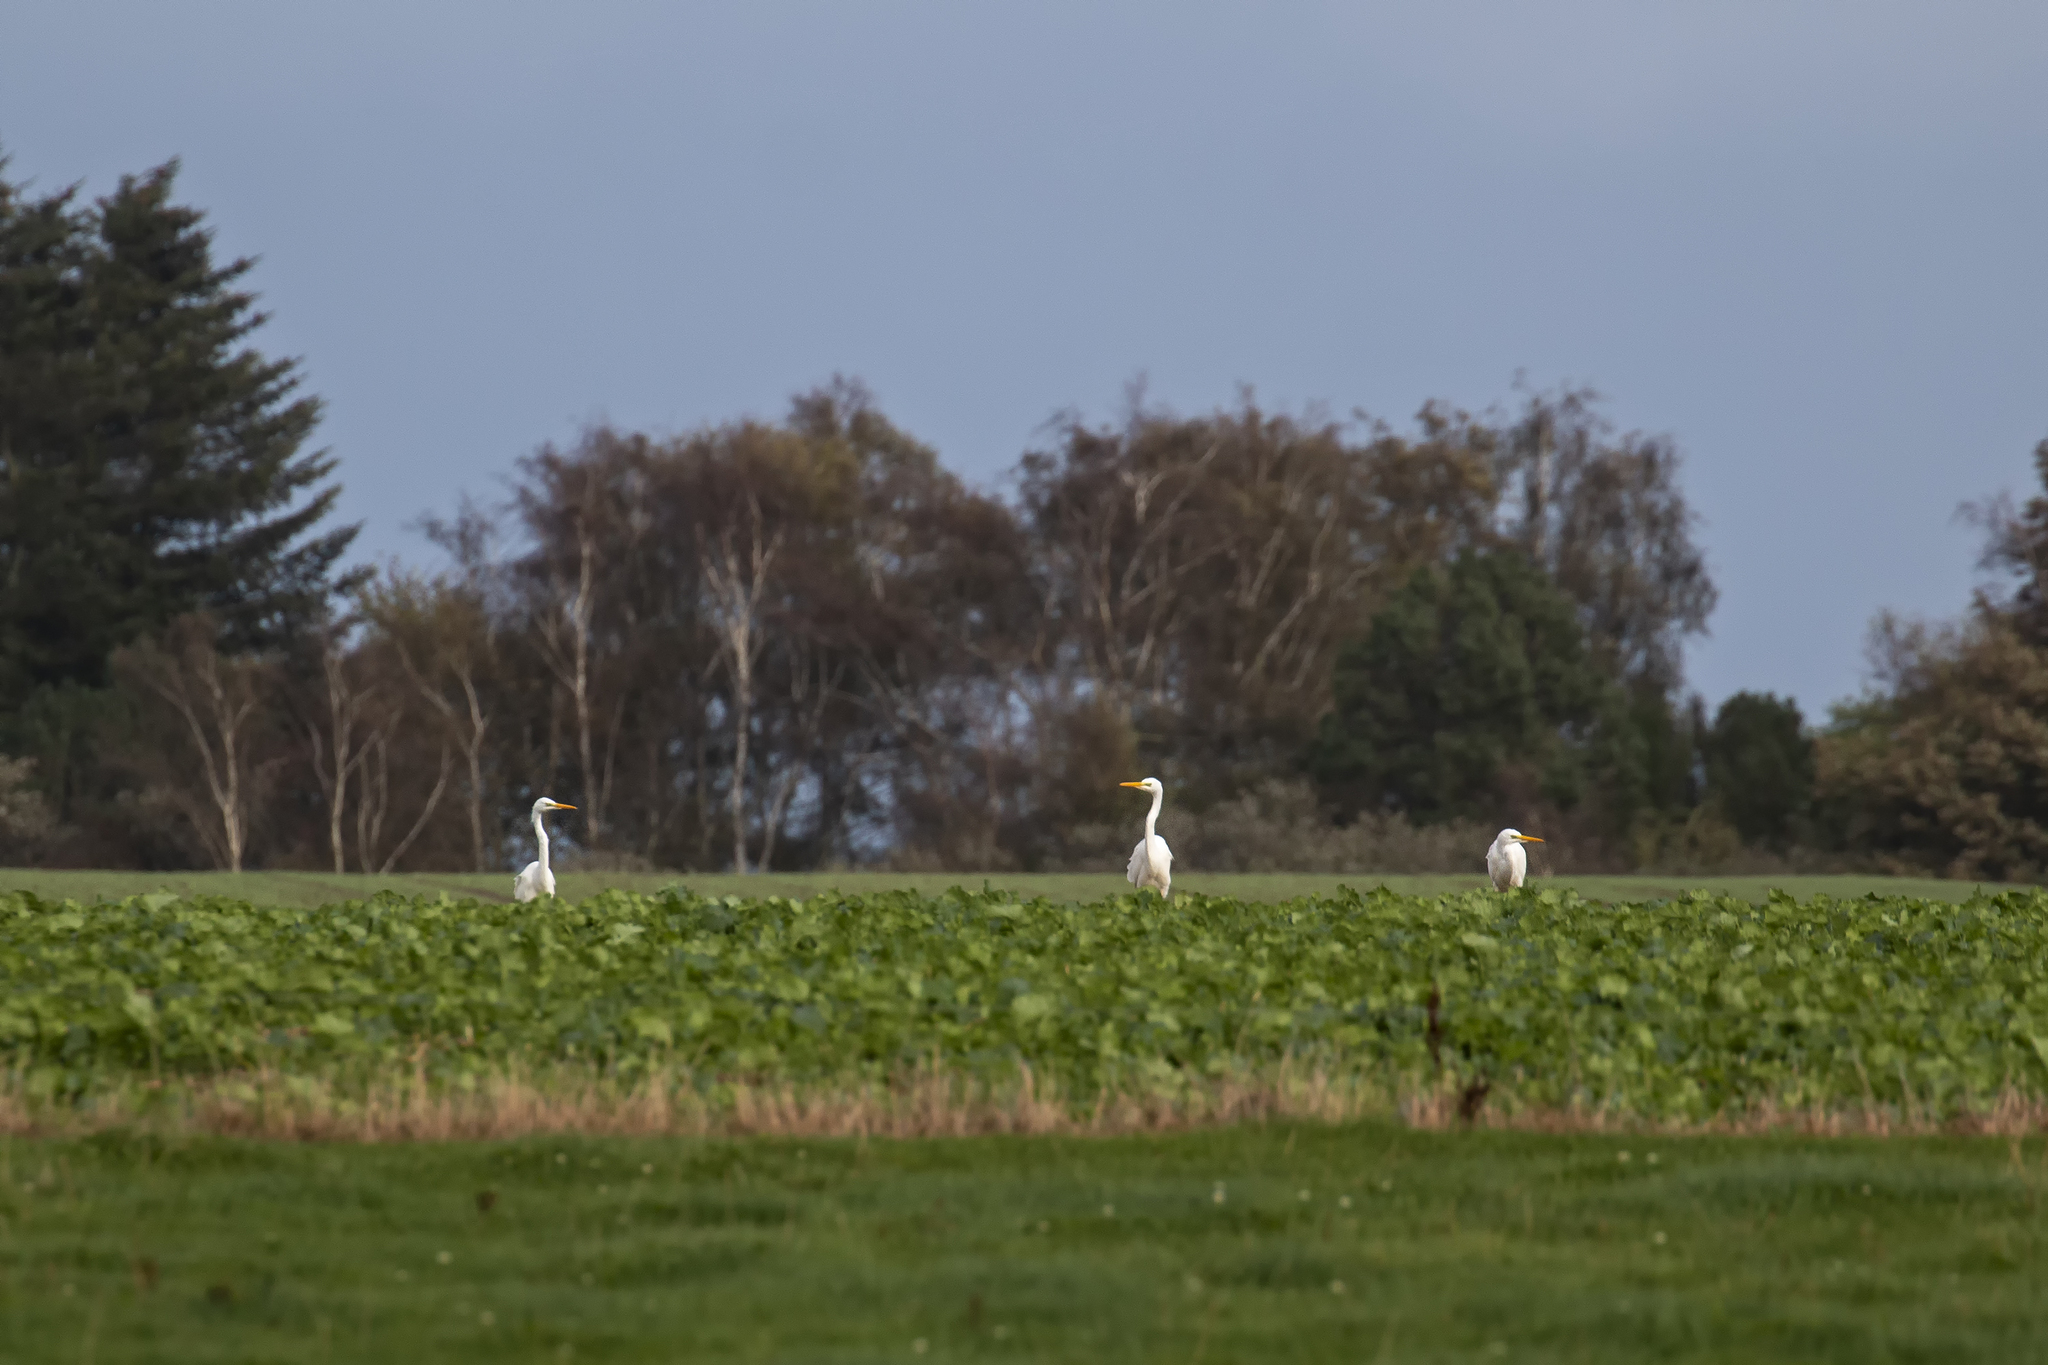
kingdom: Animalia
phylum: Chordata
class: Aves
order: Pelecaniformes
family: Ardeidae
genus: Ardea
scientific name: Ardea alba
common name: Great egret
